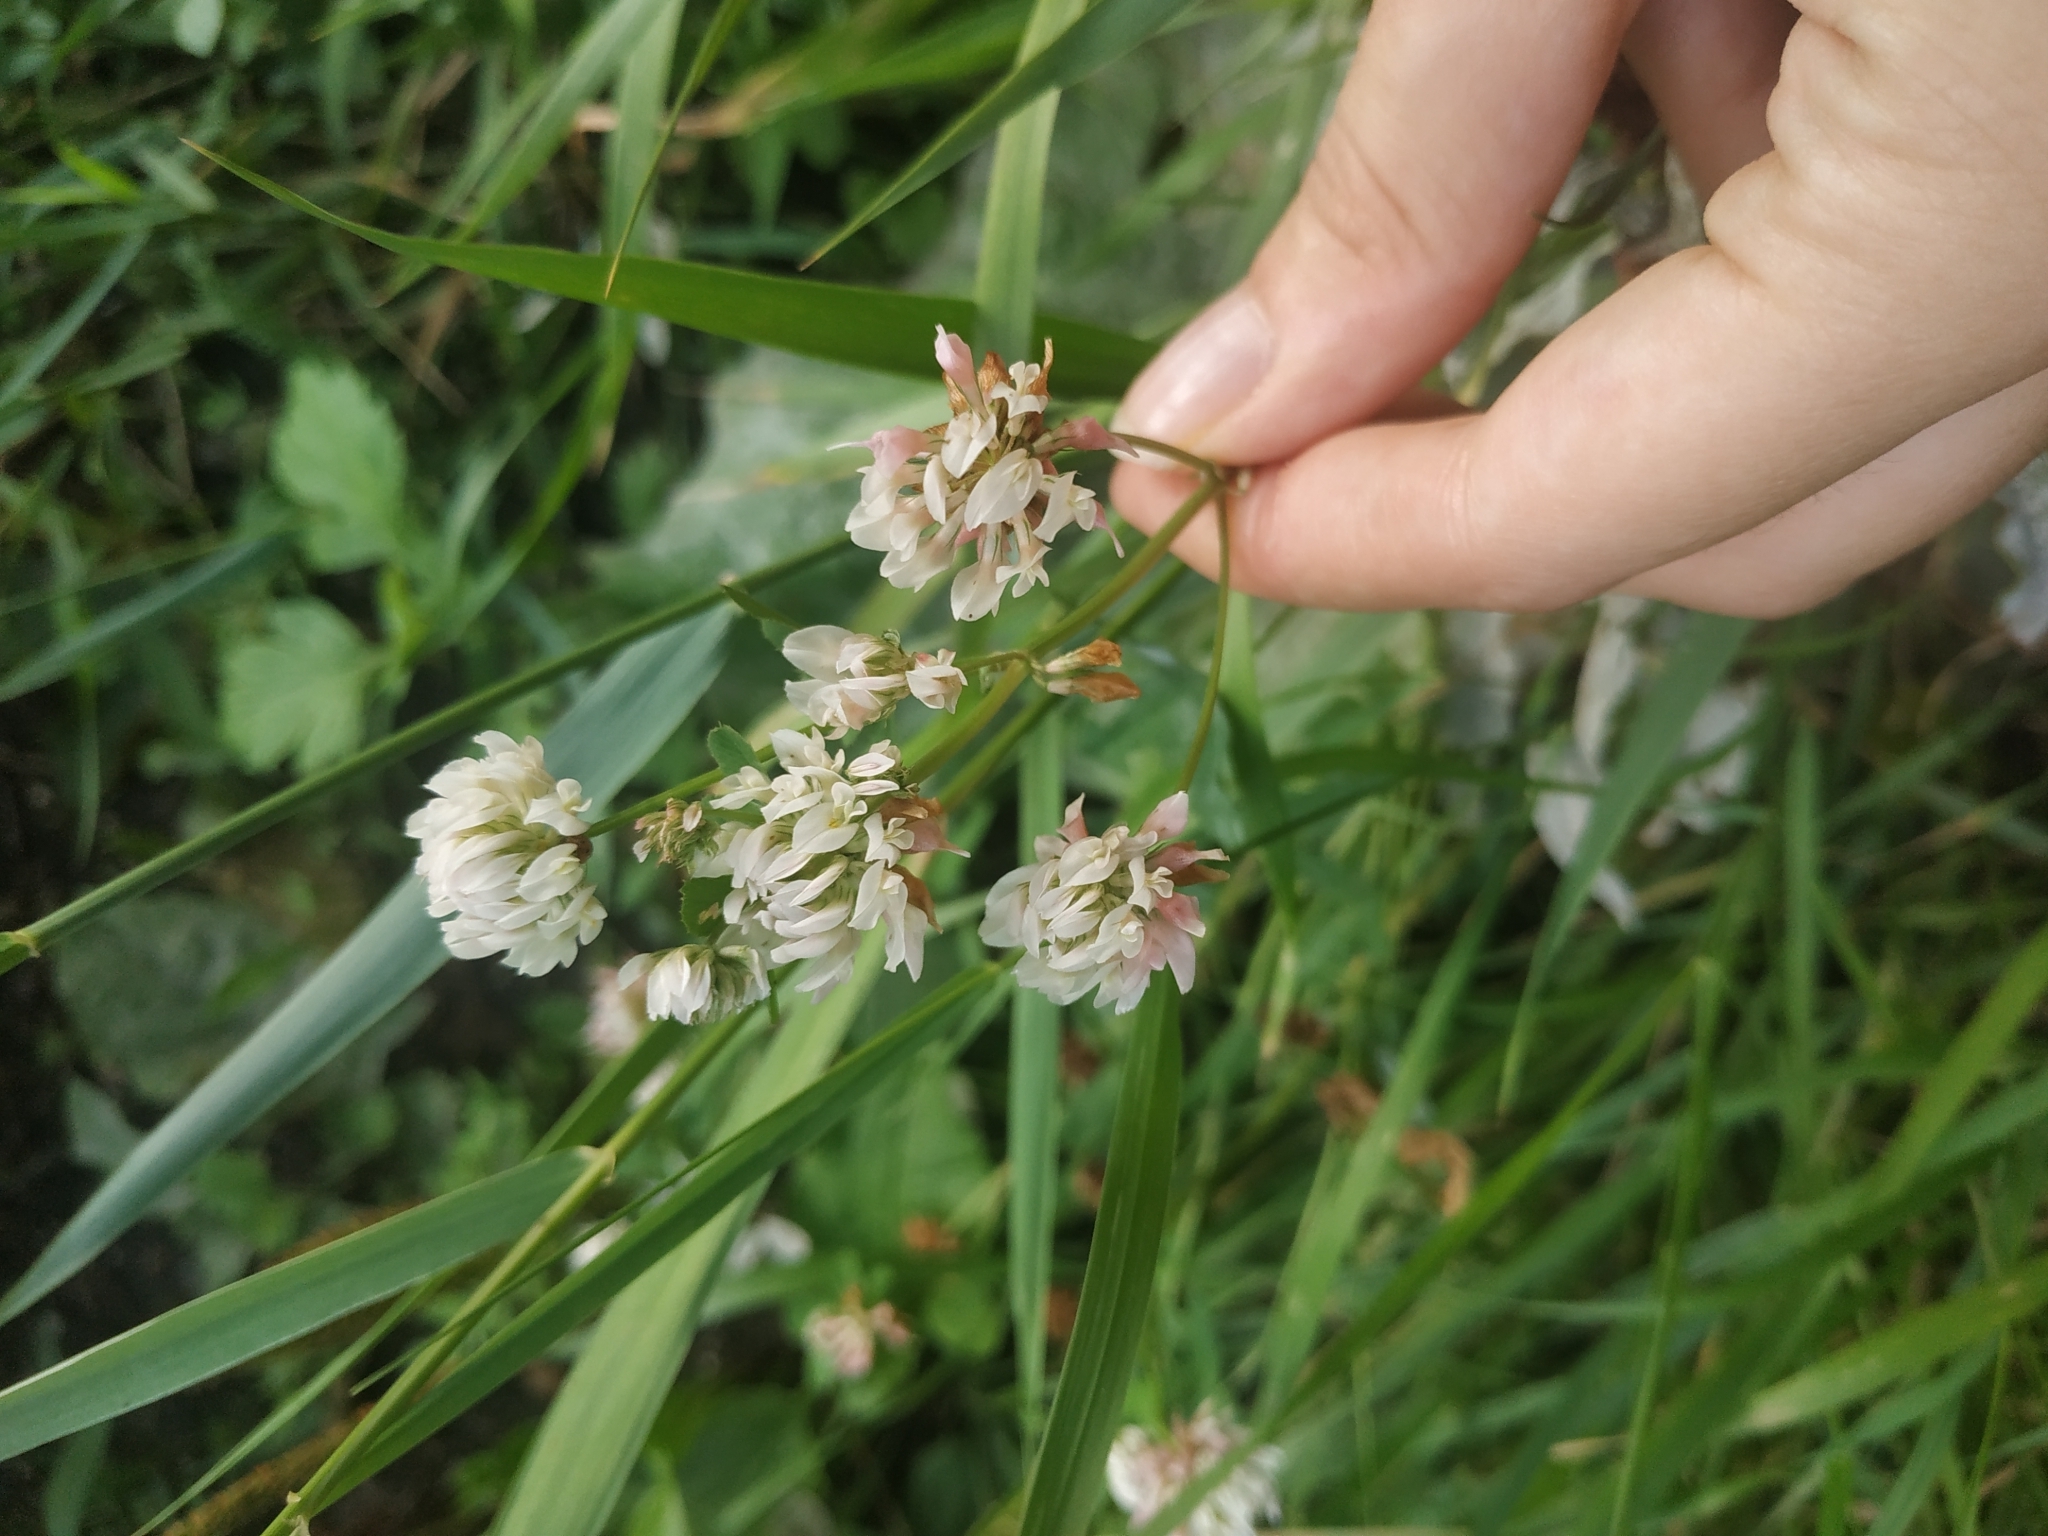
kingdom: Plantae
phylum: Tracheophyta
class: Magnoliopsida
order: Fabales
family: Fabaceae
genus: Trifolium
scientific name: Trifolium hybridum
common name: Alsike clover
